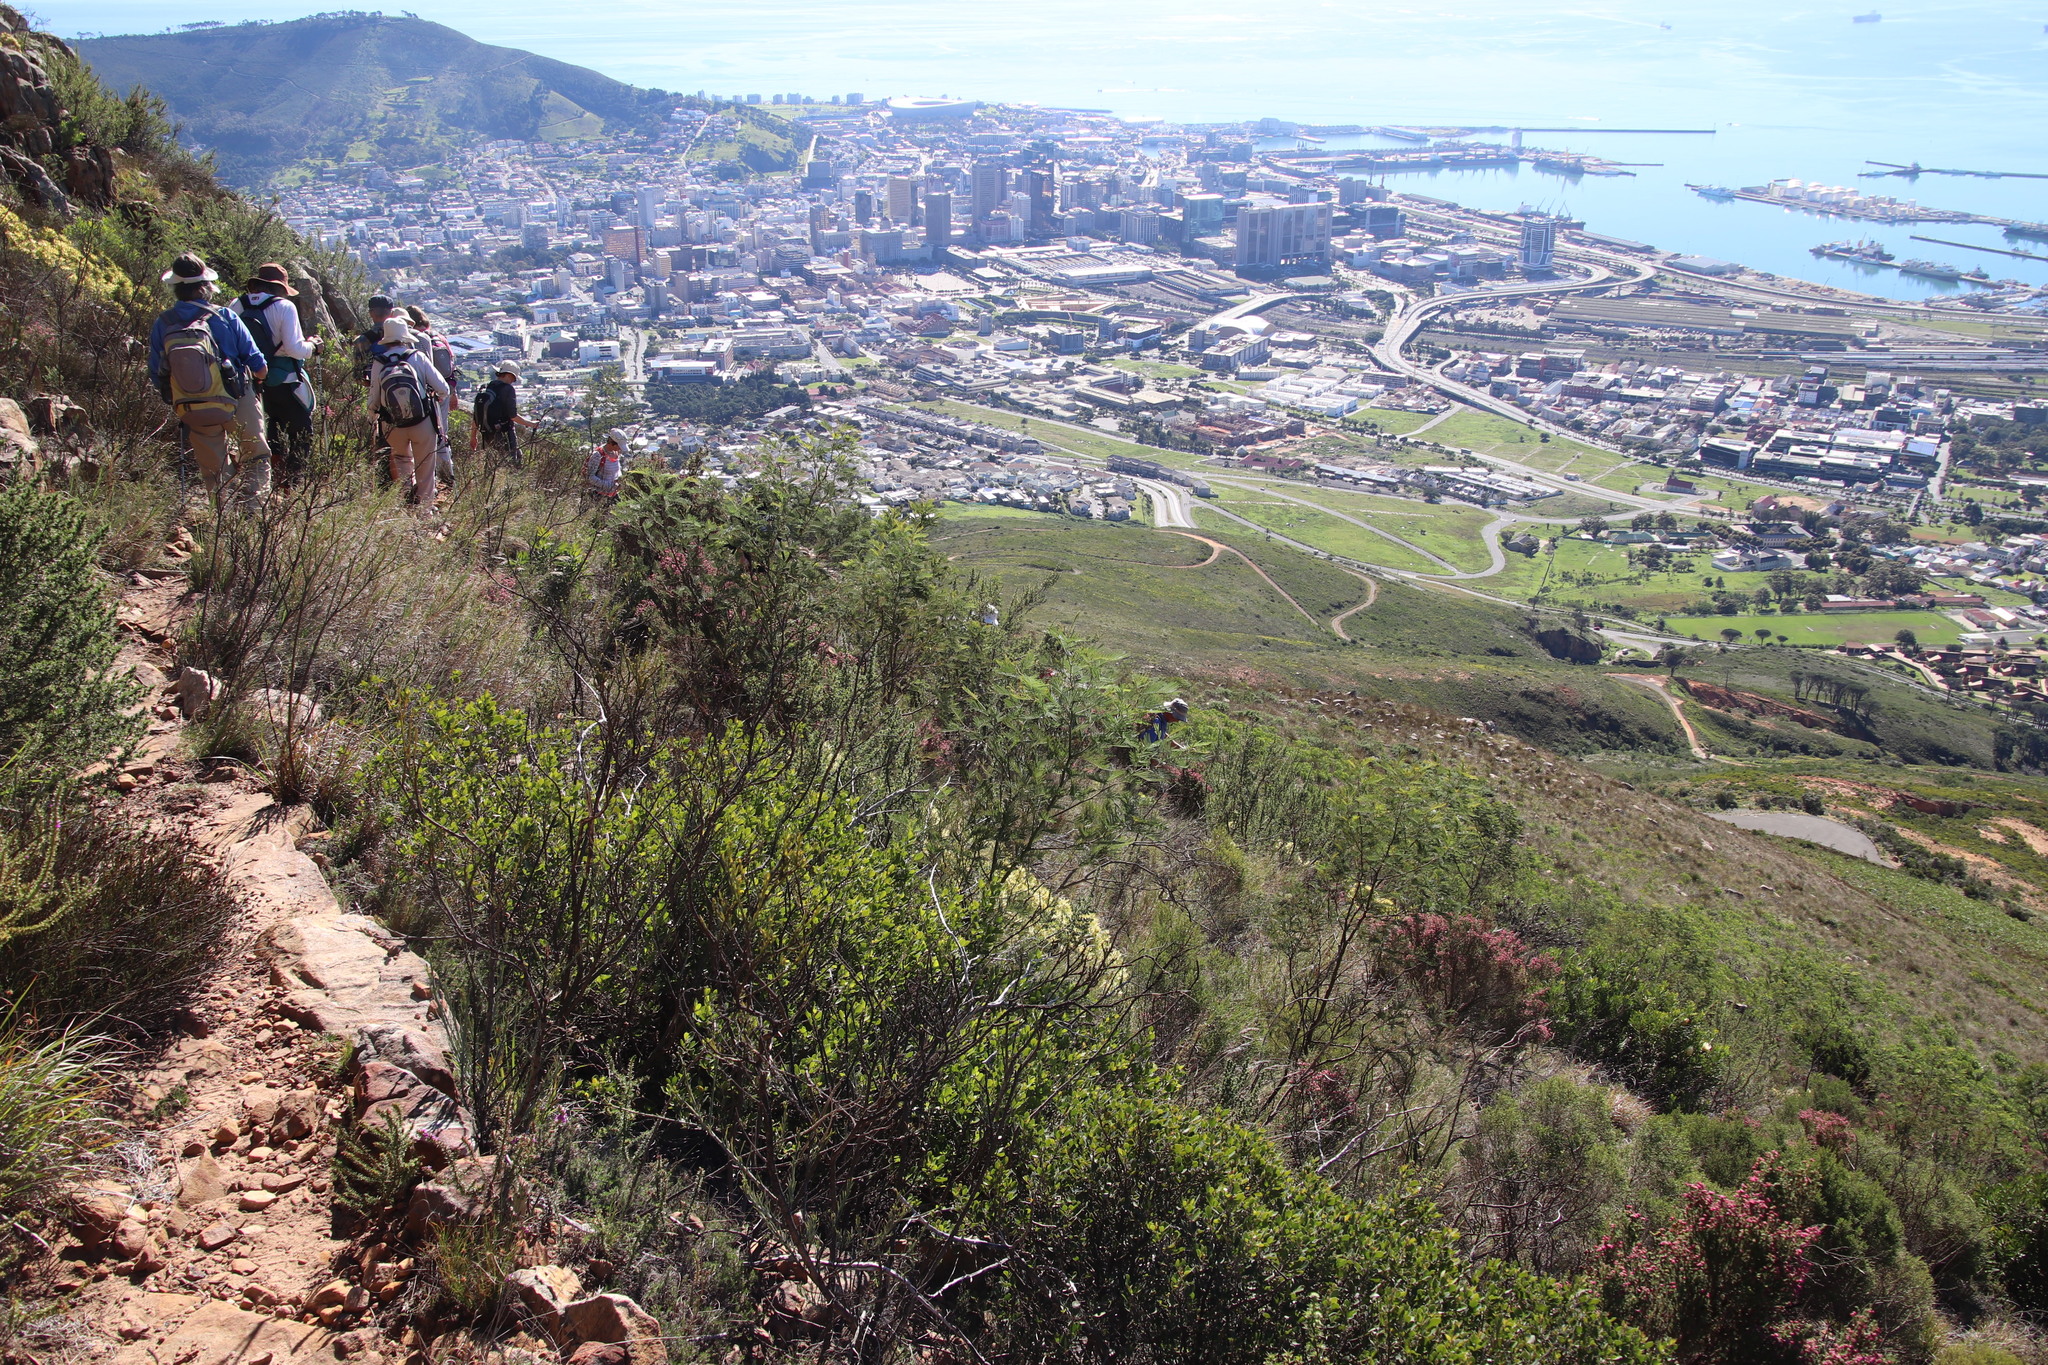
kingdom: Plantae
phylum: Tracheophyta
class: Magnoliopsida
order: Fabales
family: Fabaceae
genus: Acacia
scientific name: Acacia mearnsii
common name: Black wattle
